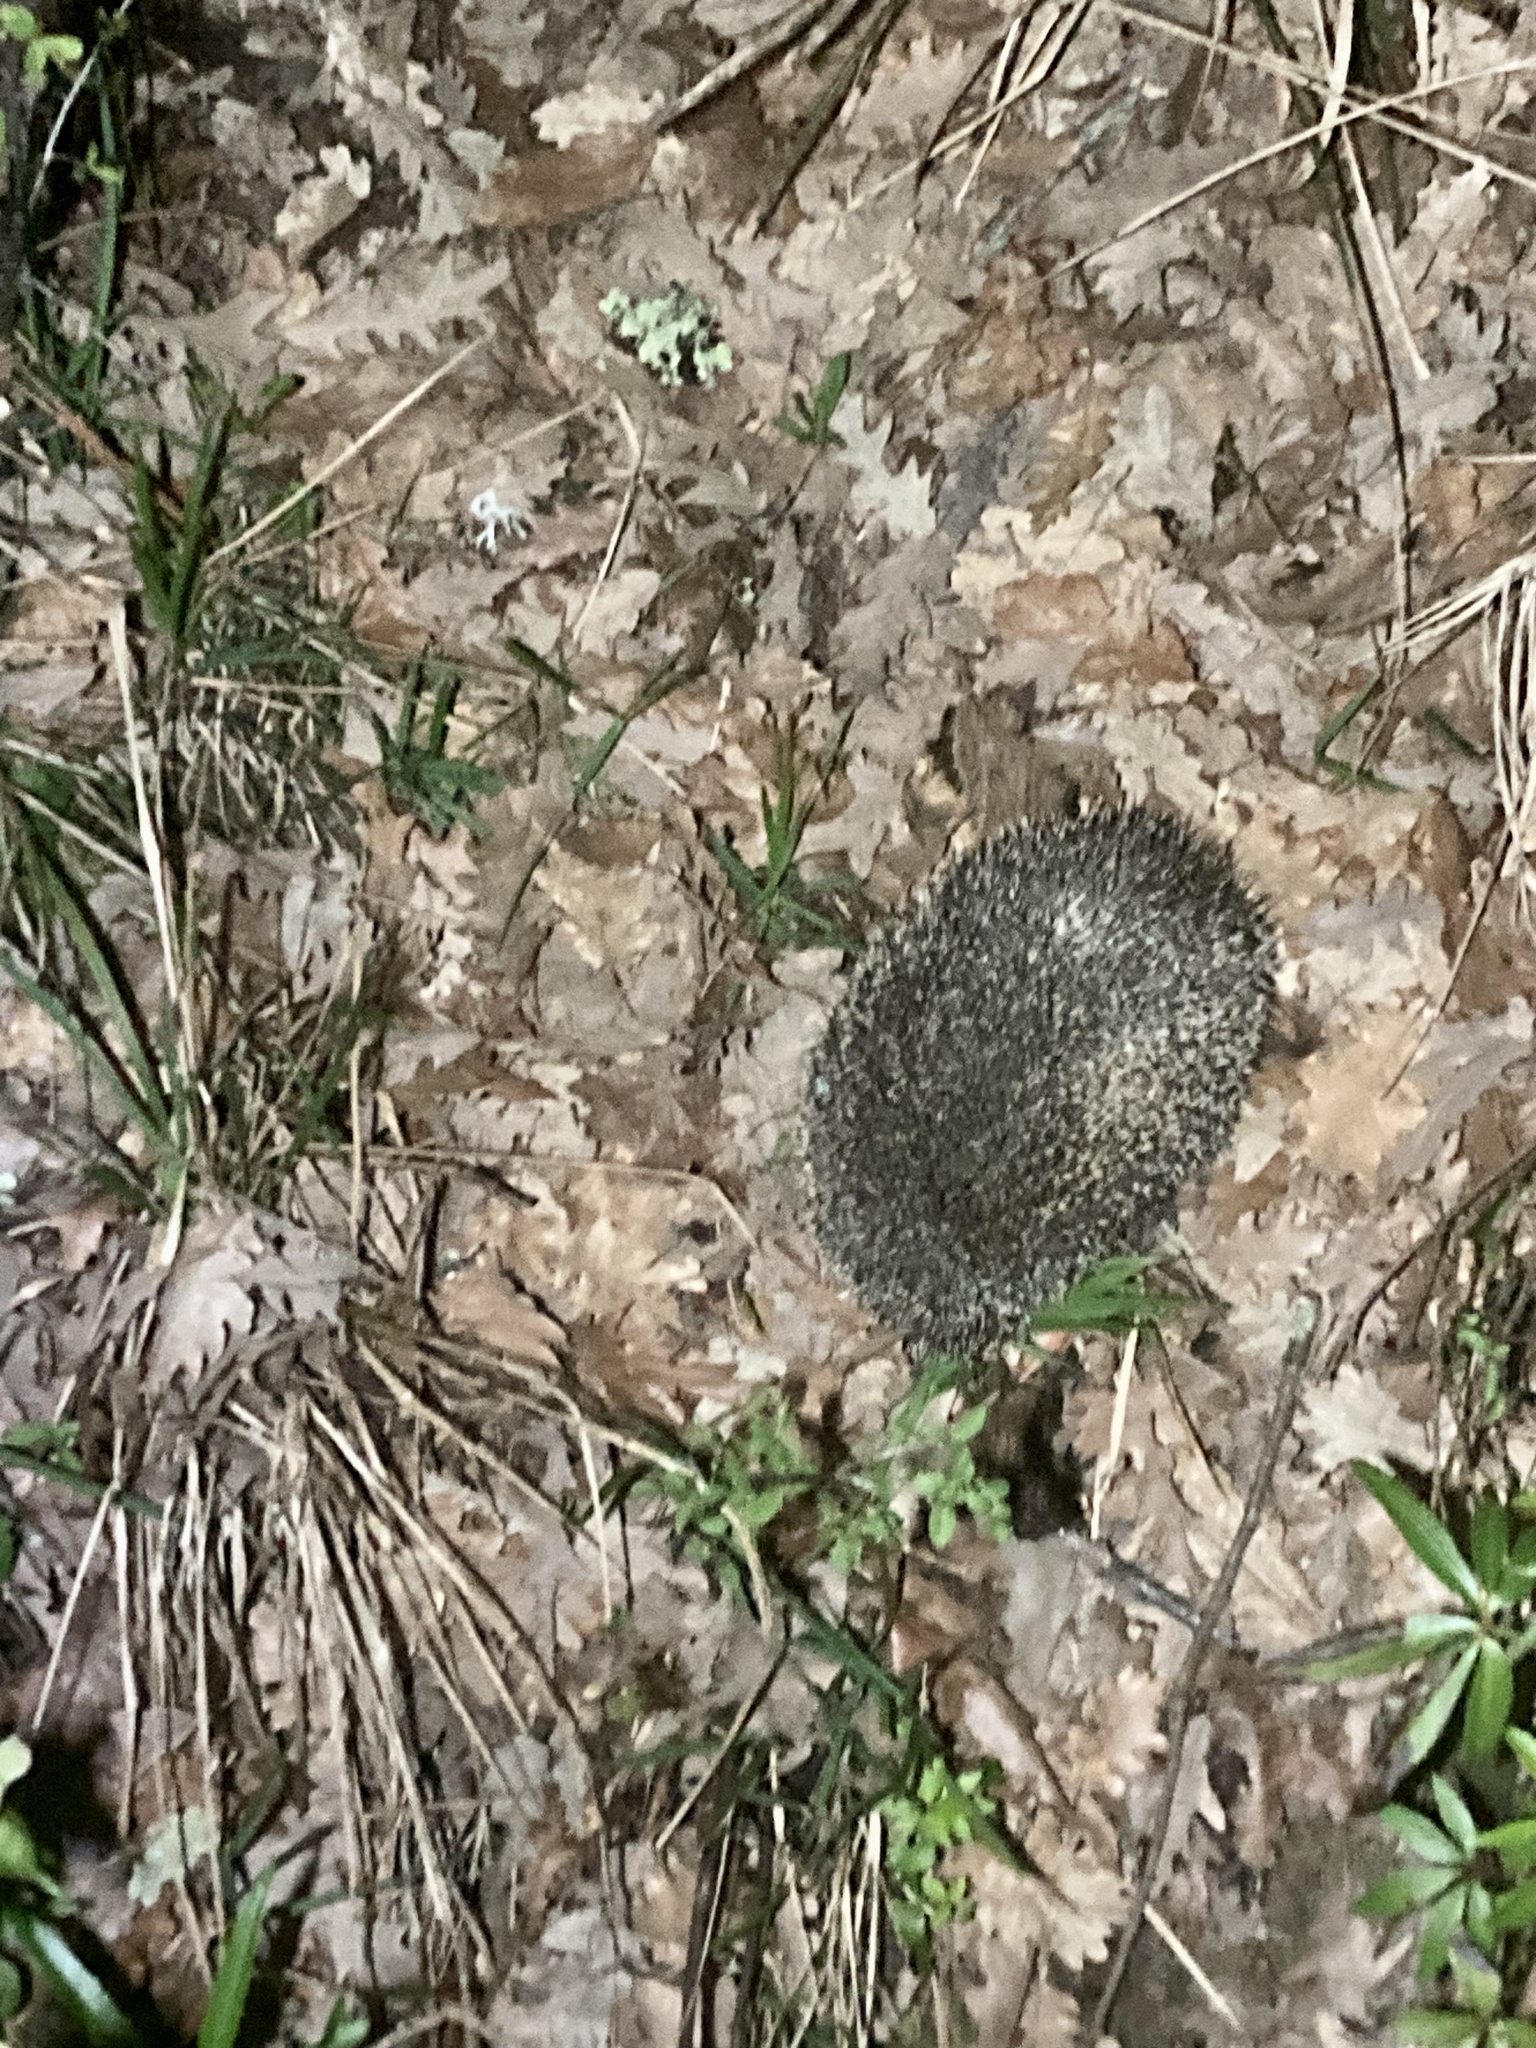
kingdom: Animalia
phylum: Chordata
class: Mammalia
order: Erinaceomorpha
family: Erinaceidae
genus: Erinaceus
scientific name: Erinaceus europaeus
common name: West european hedgehog
